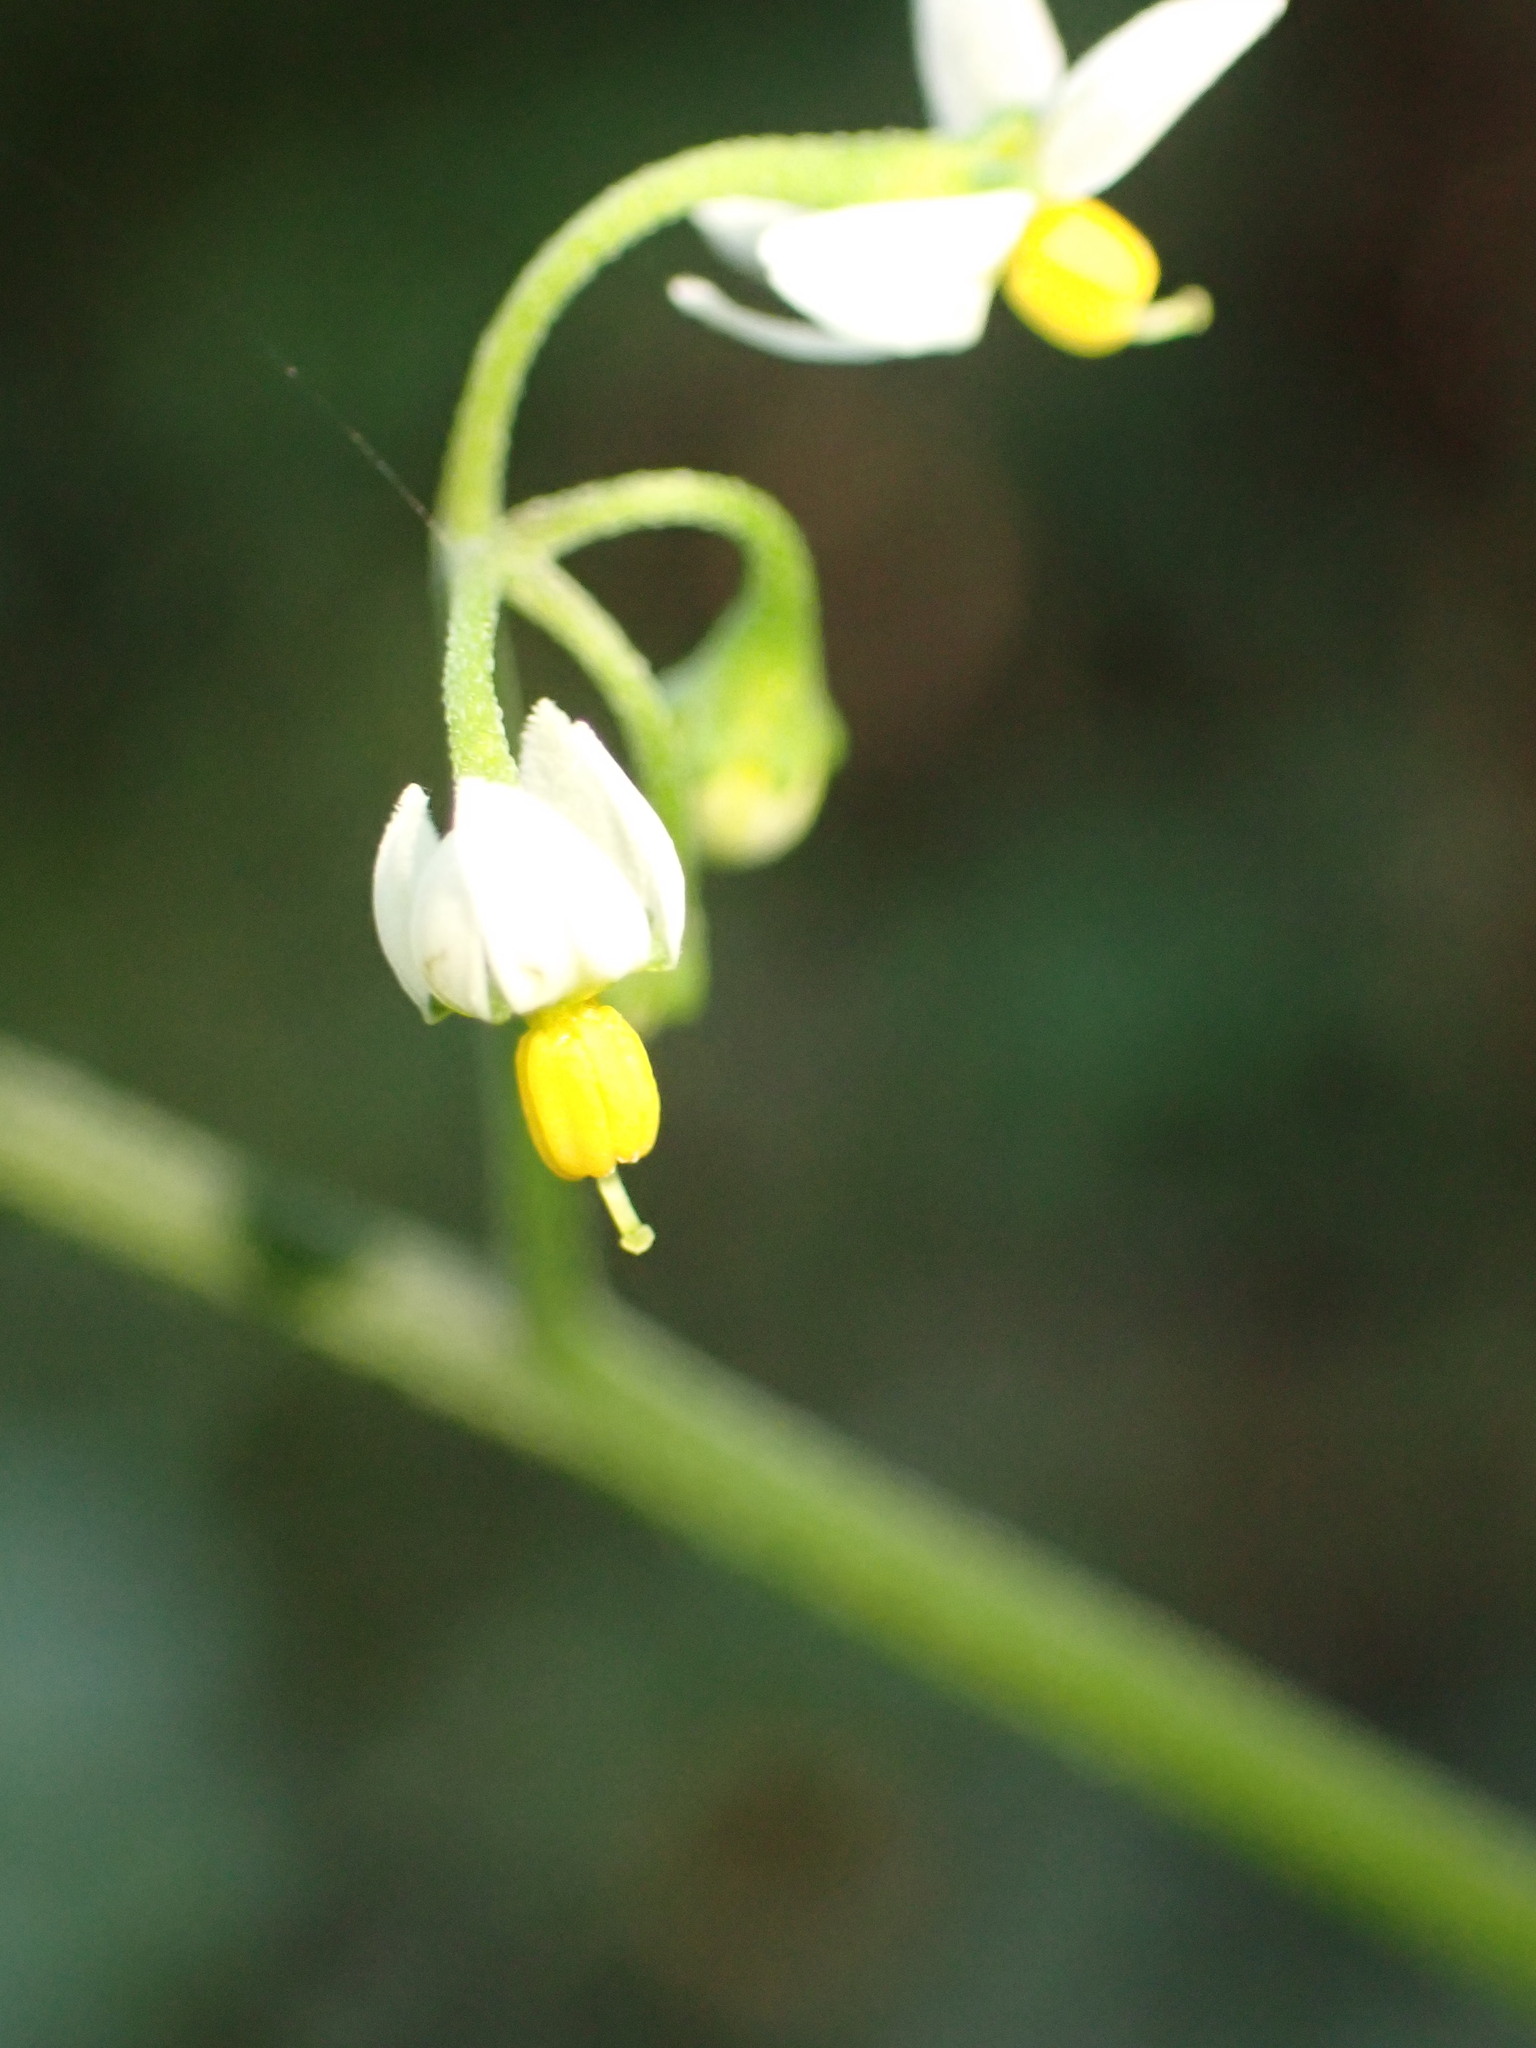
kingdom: Plantae
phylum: Tracheophyta
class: Magnoliopsida
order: Solanales
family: Solanaceae
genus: Solanum
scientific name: Solanum americanum
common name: American black nightshade
